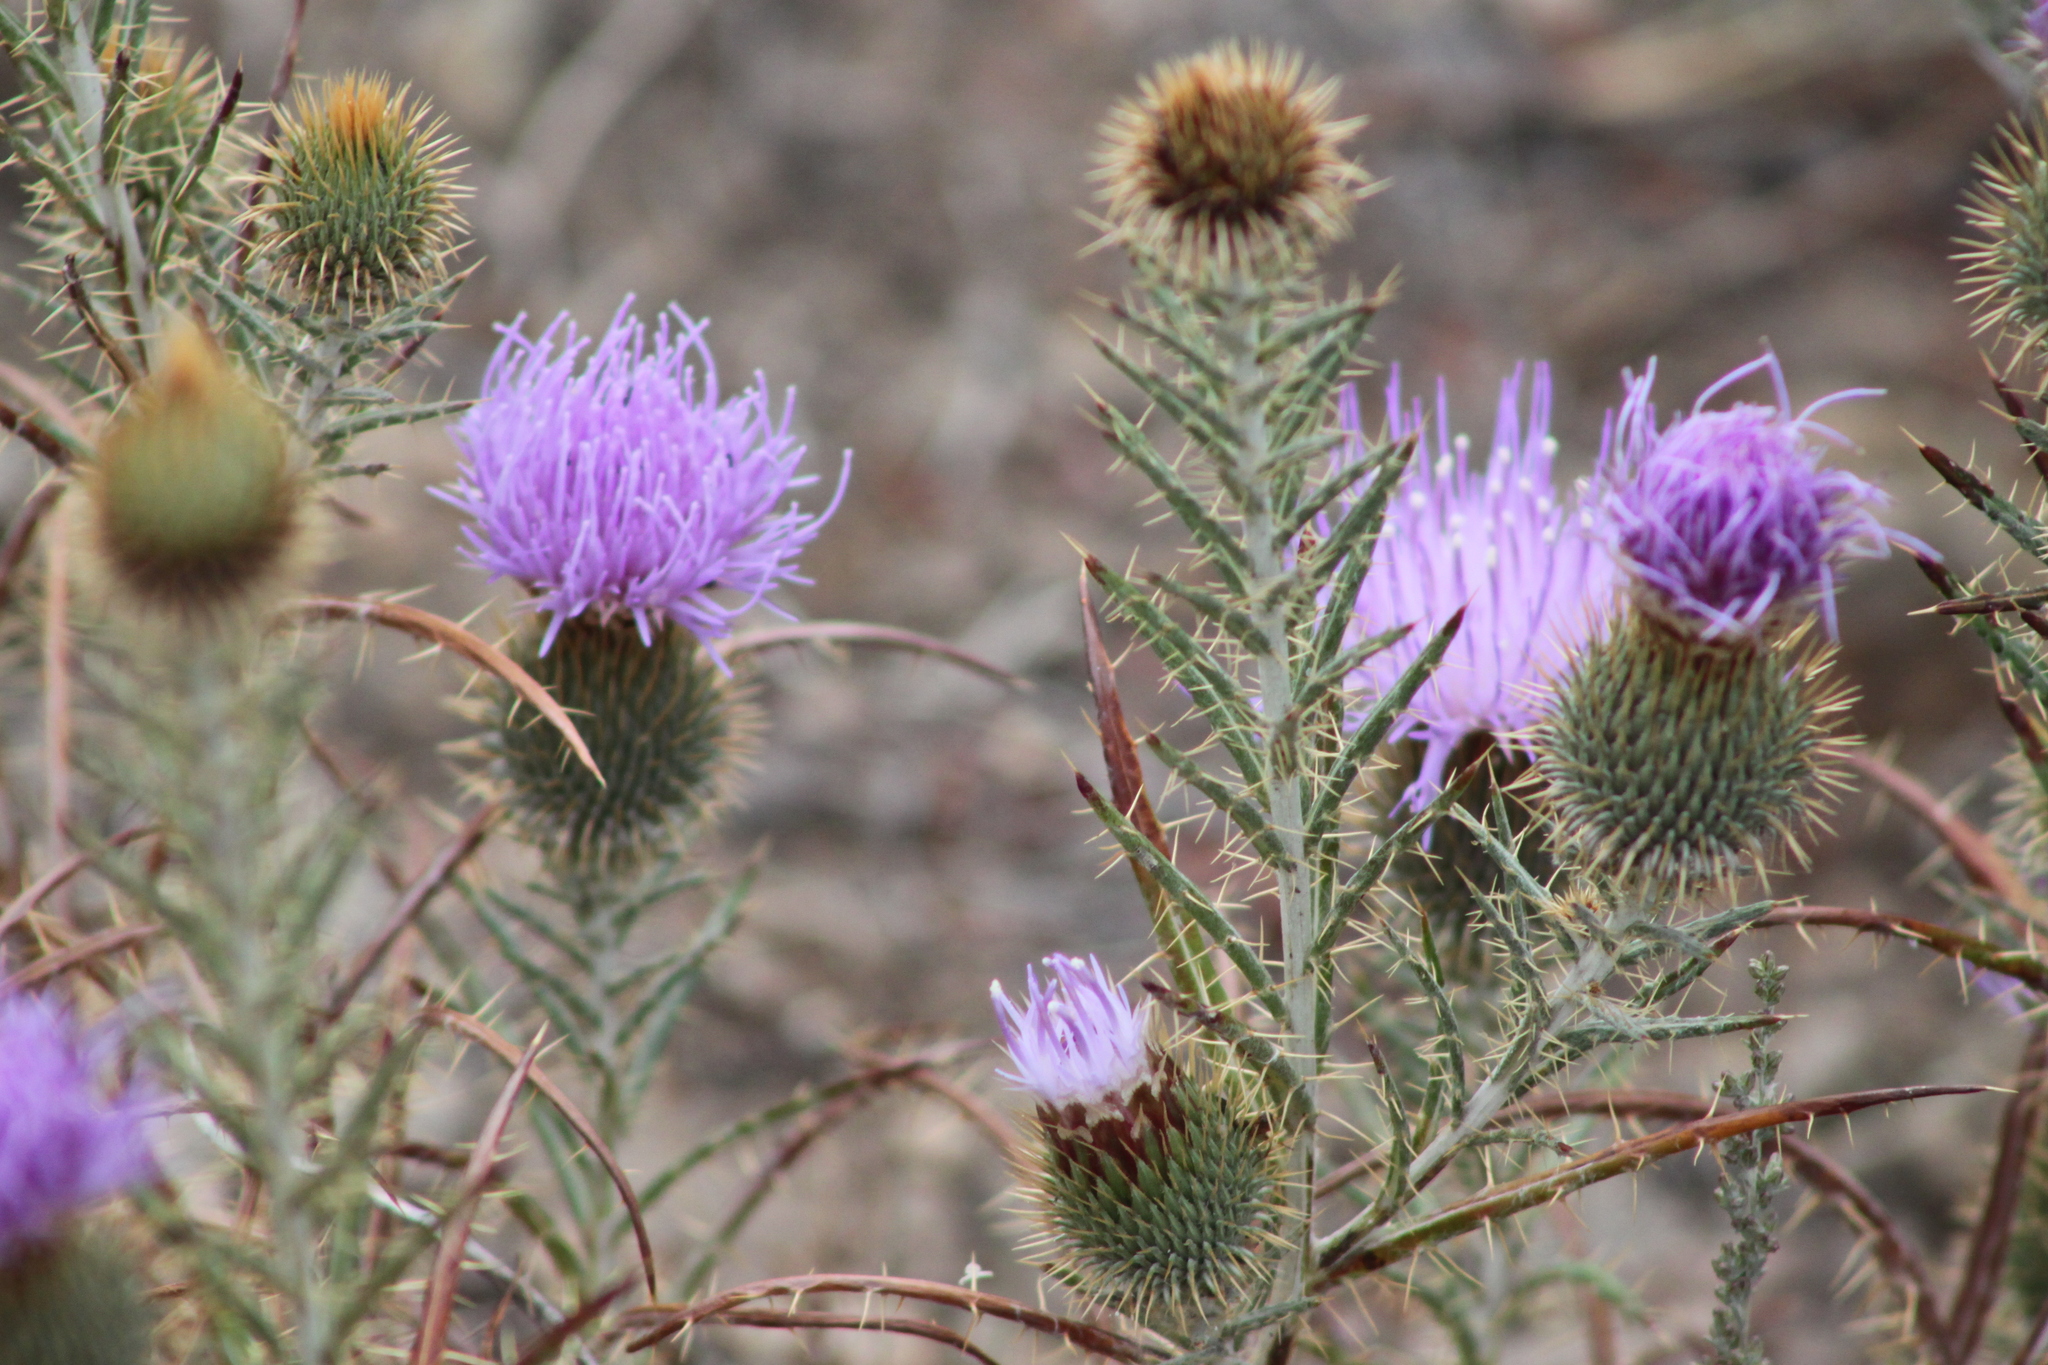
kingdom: Plantae
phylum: Tracheophyta
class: Magnoliopsida
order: Asterales
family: Asteraceae
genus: Ancathia
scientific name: Ancathia igniaria
